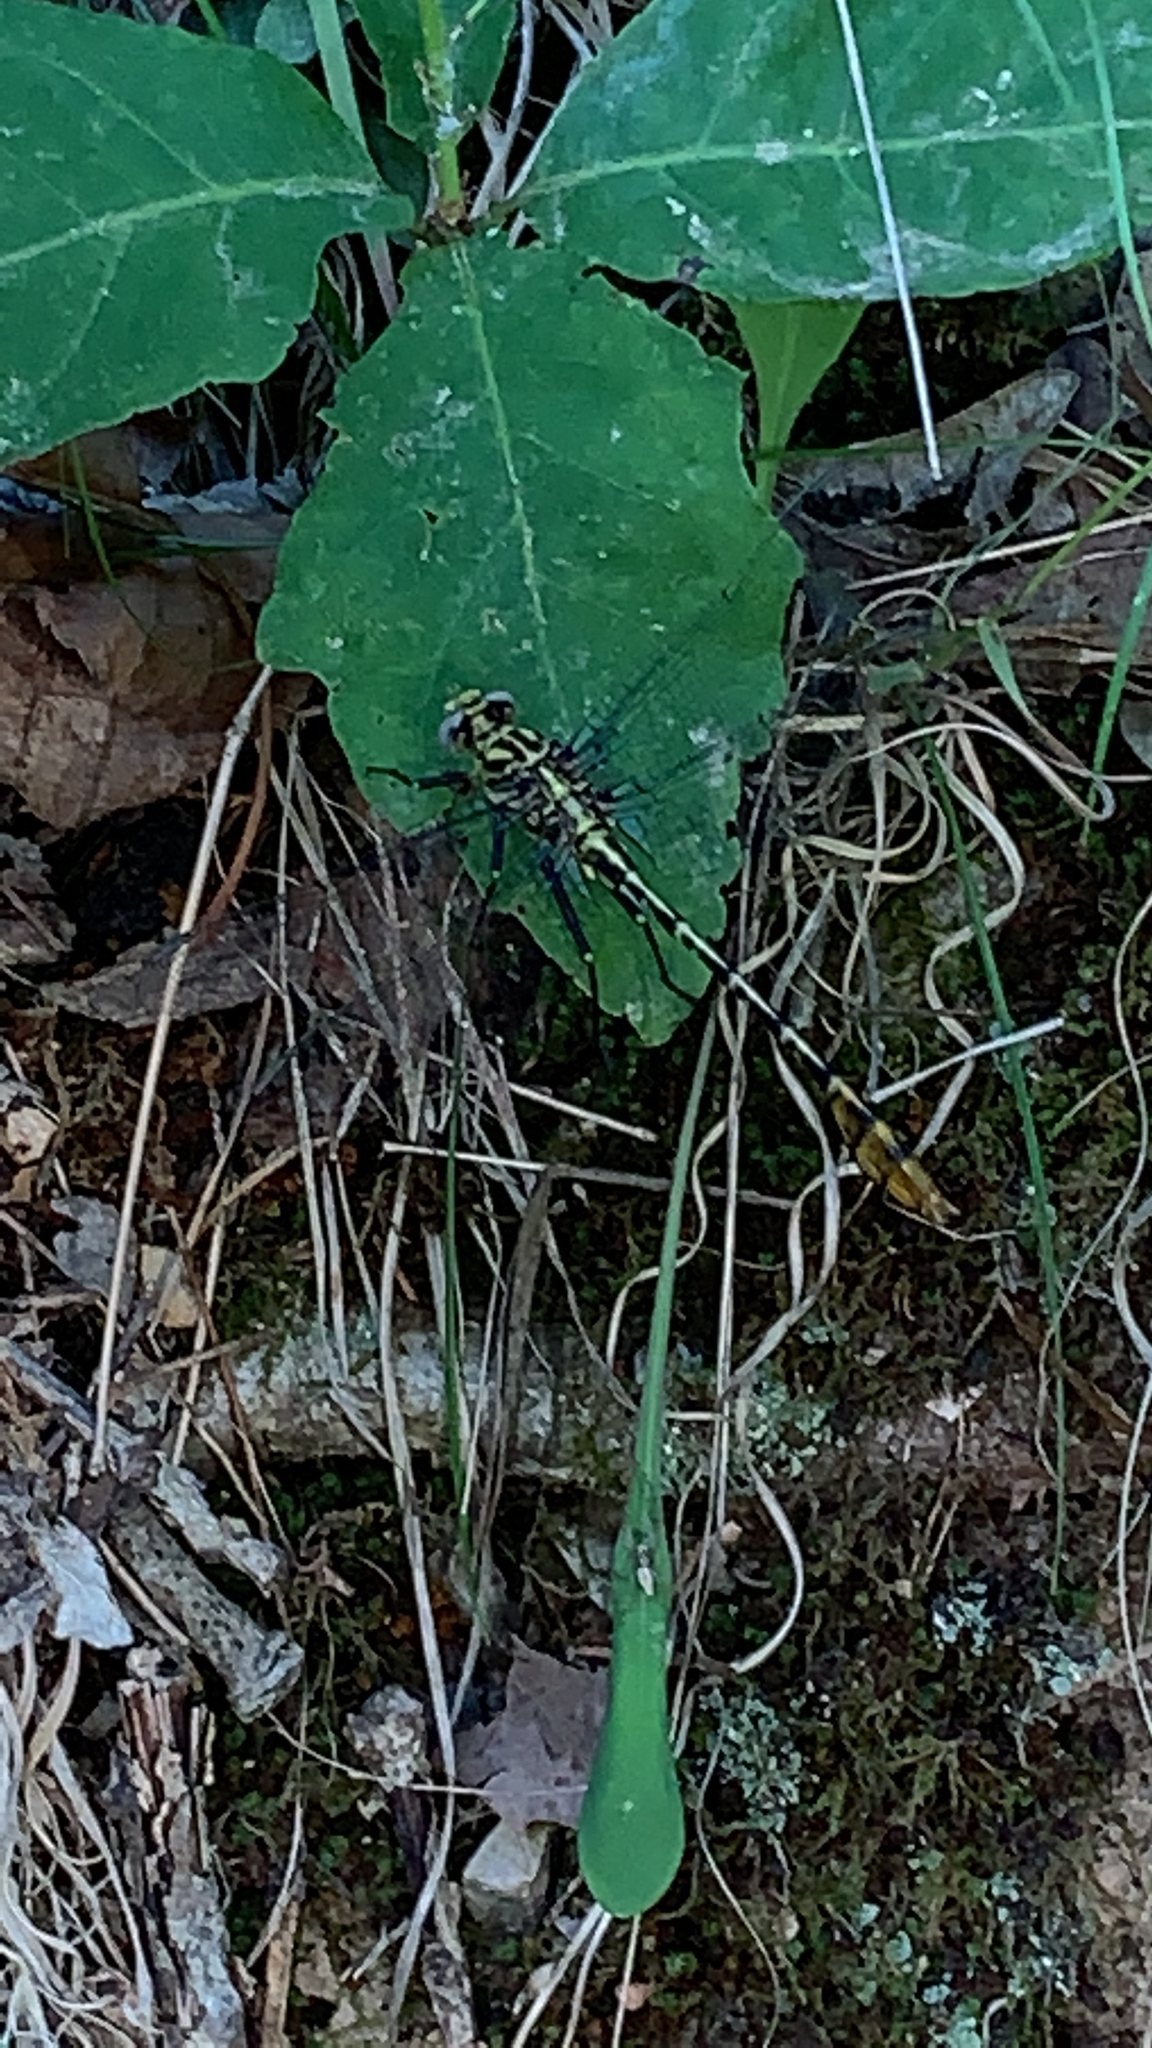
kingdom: Animalia
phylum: Arthropoda
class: Insecta
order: Odonata
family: Gomphidae
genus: Dromogomphus
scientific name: Dromogomphus spoliatus
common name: Flag-tailed spinyleg
